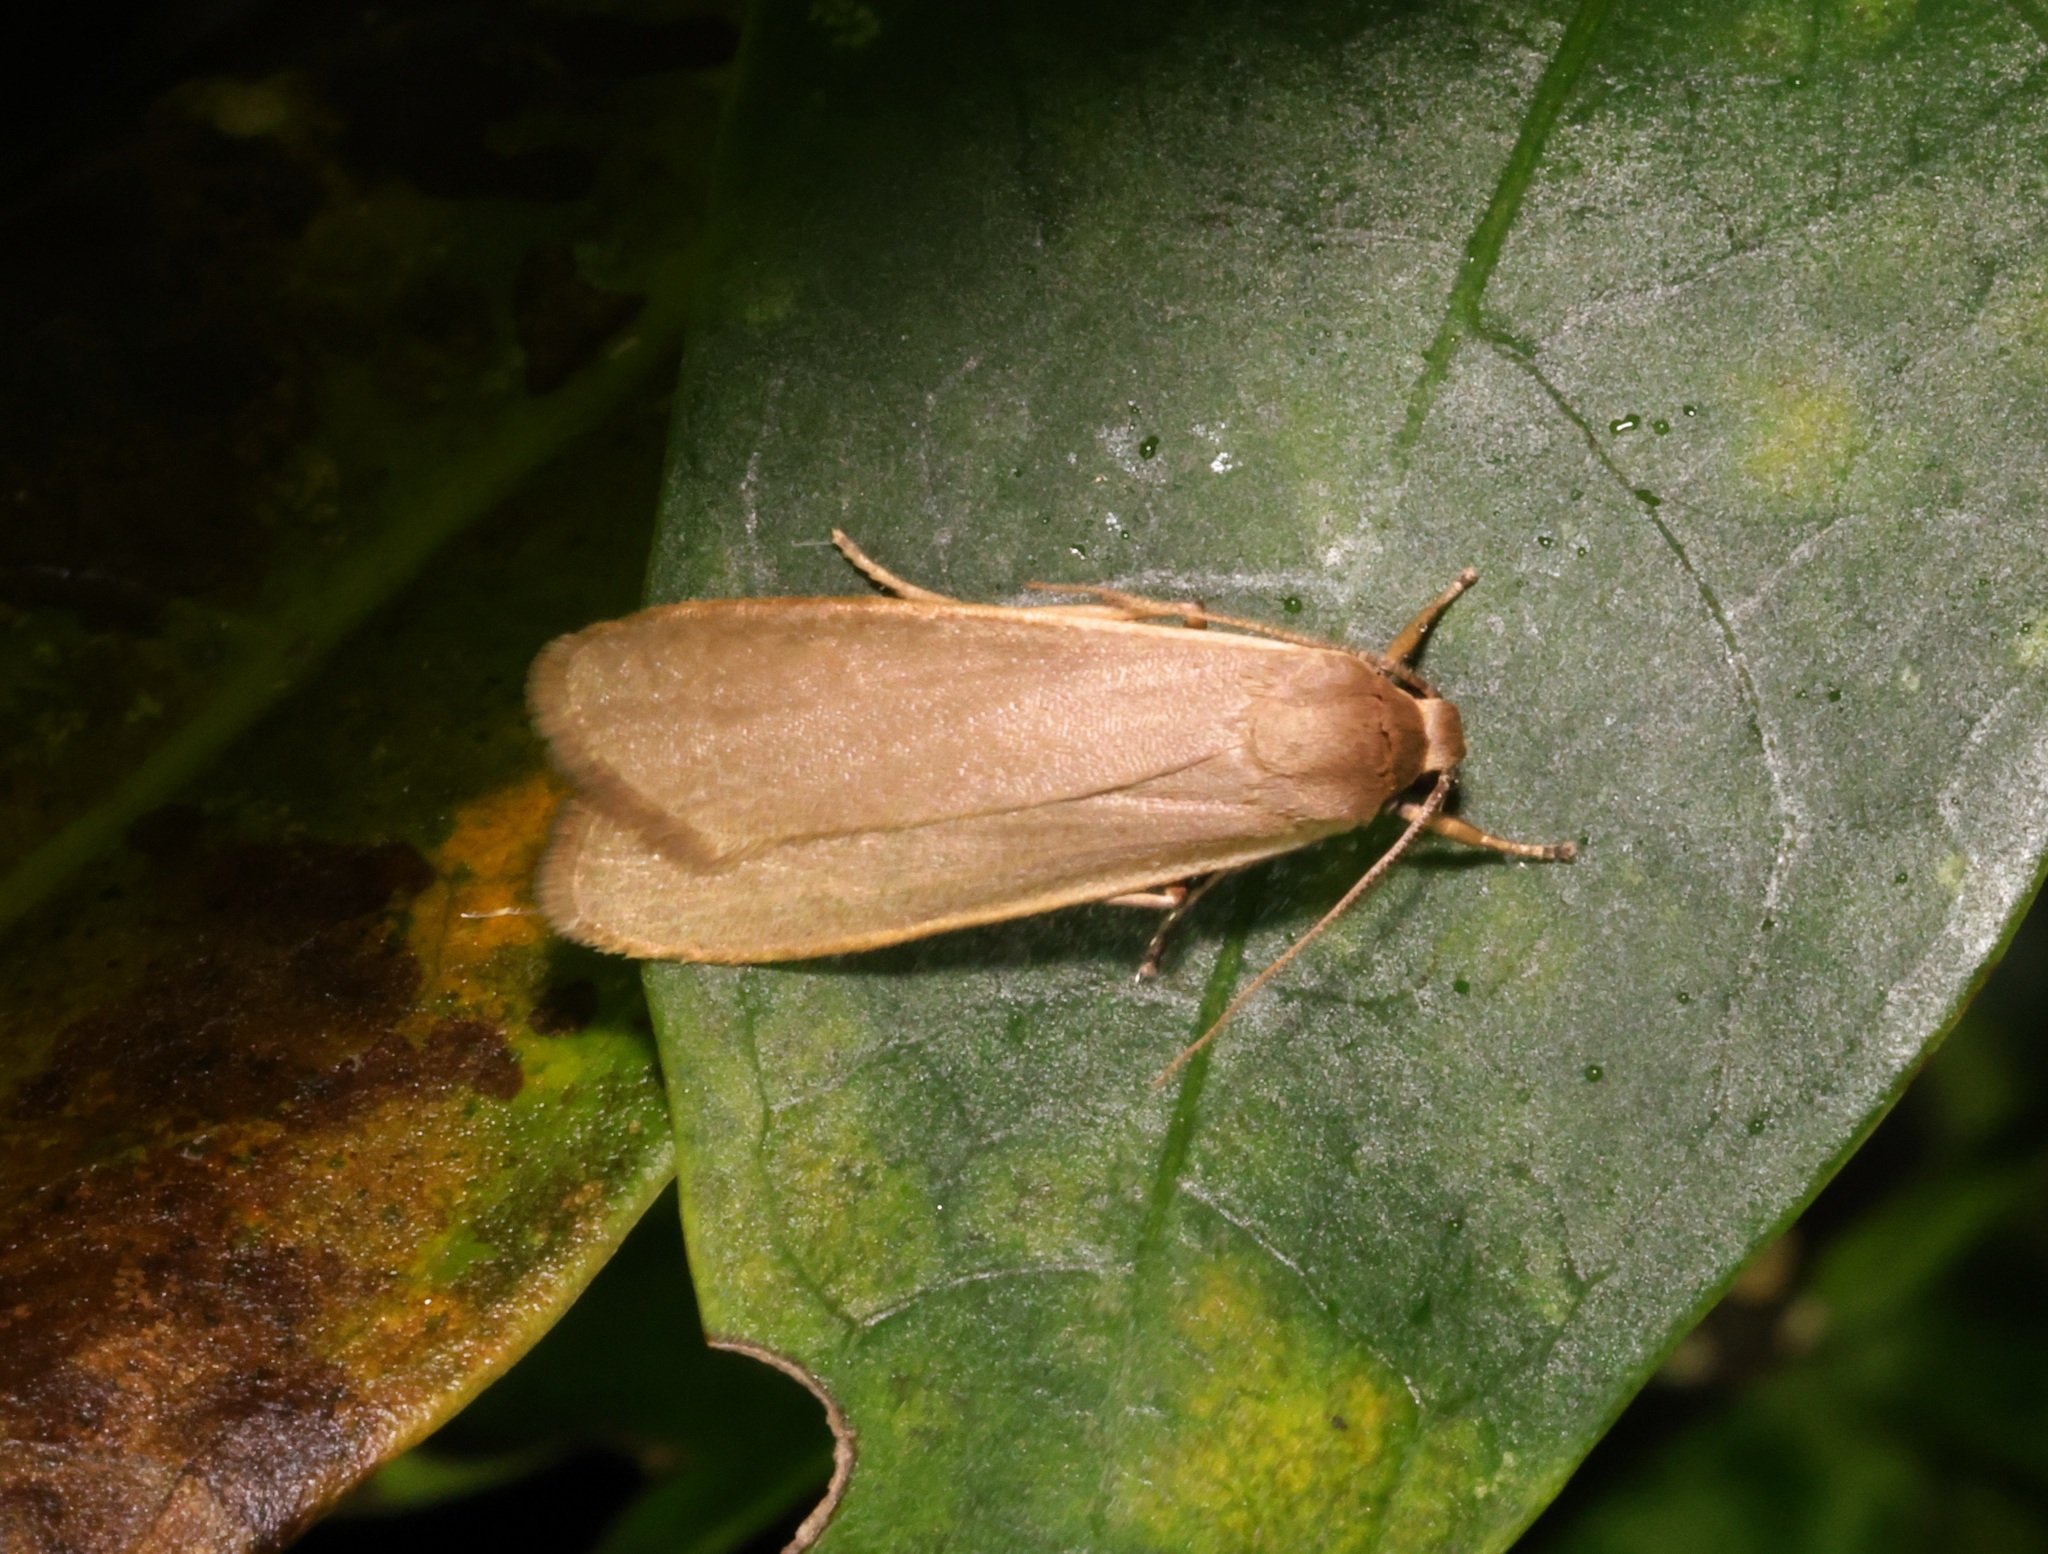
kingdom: Animalia
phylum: Arthropoda
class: Insecta
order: Lepidoptera
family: Erebidae
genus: Danielithosia
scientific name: Danielithosia immaculata
